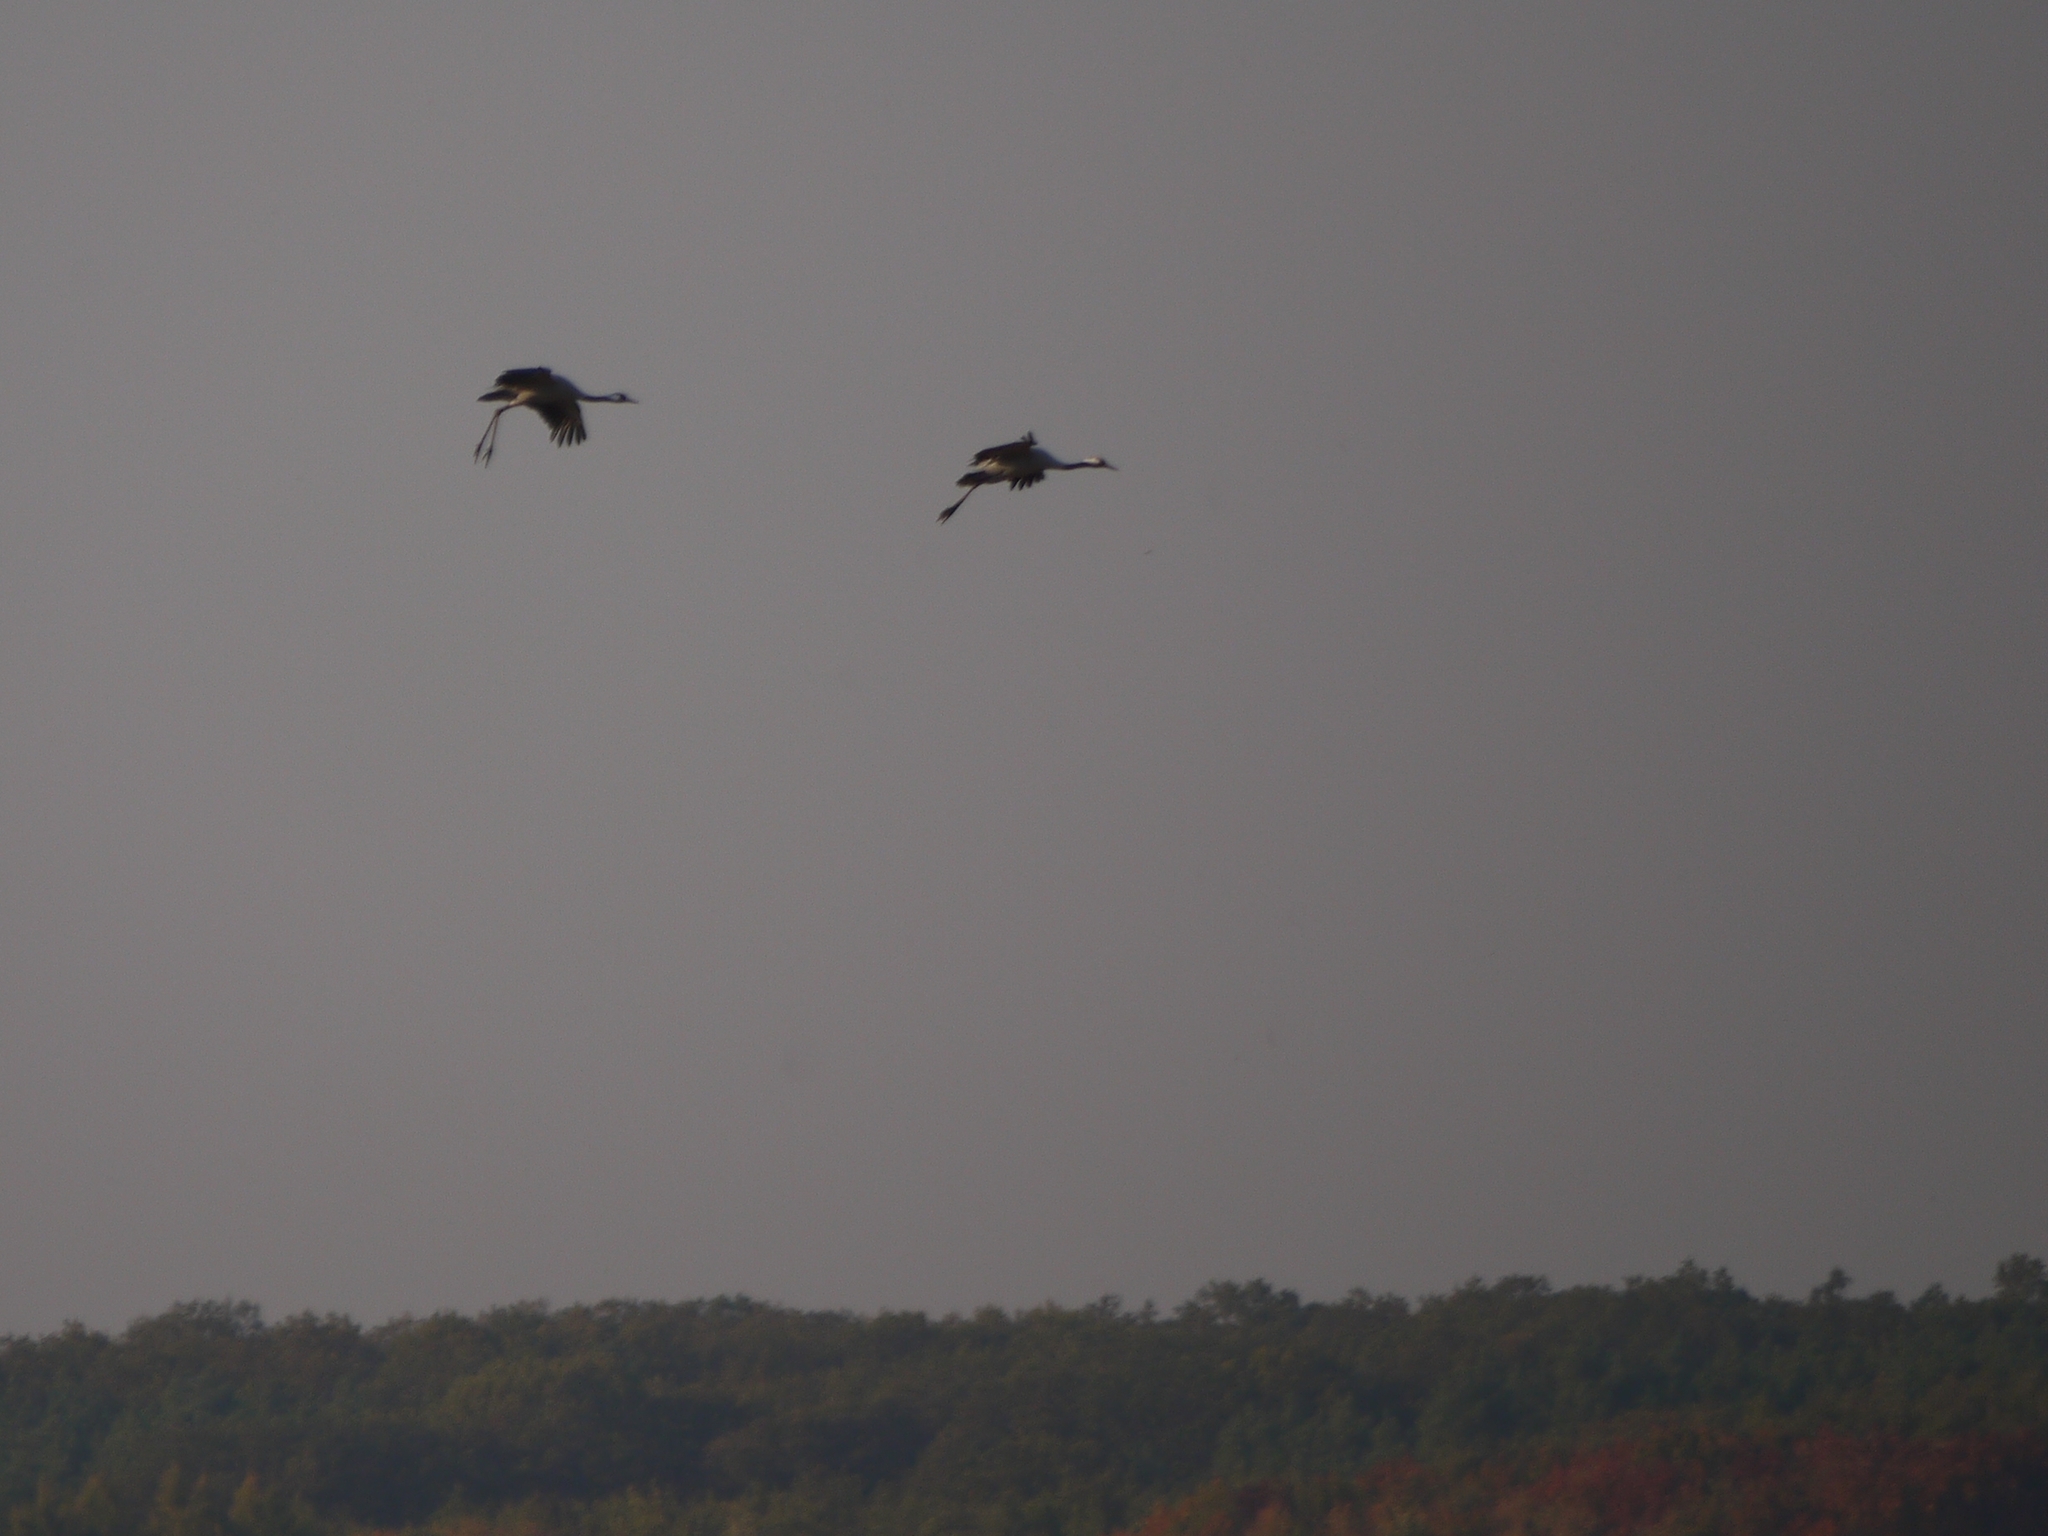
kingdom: Animalia
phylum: Chordata
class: Aves
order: Gruiformes
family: Gruidae
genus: Grus
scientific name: Grus grus
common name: Common crane
